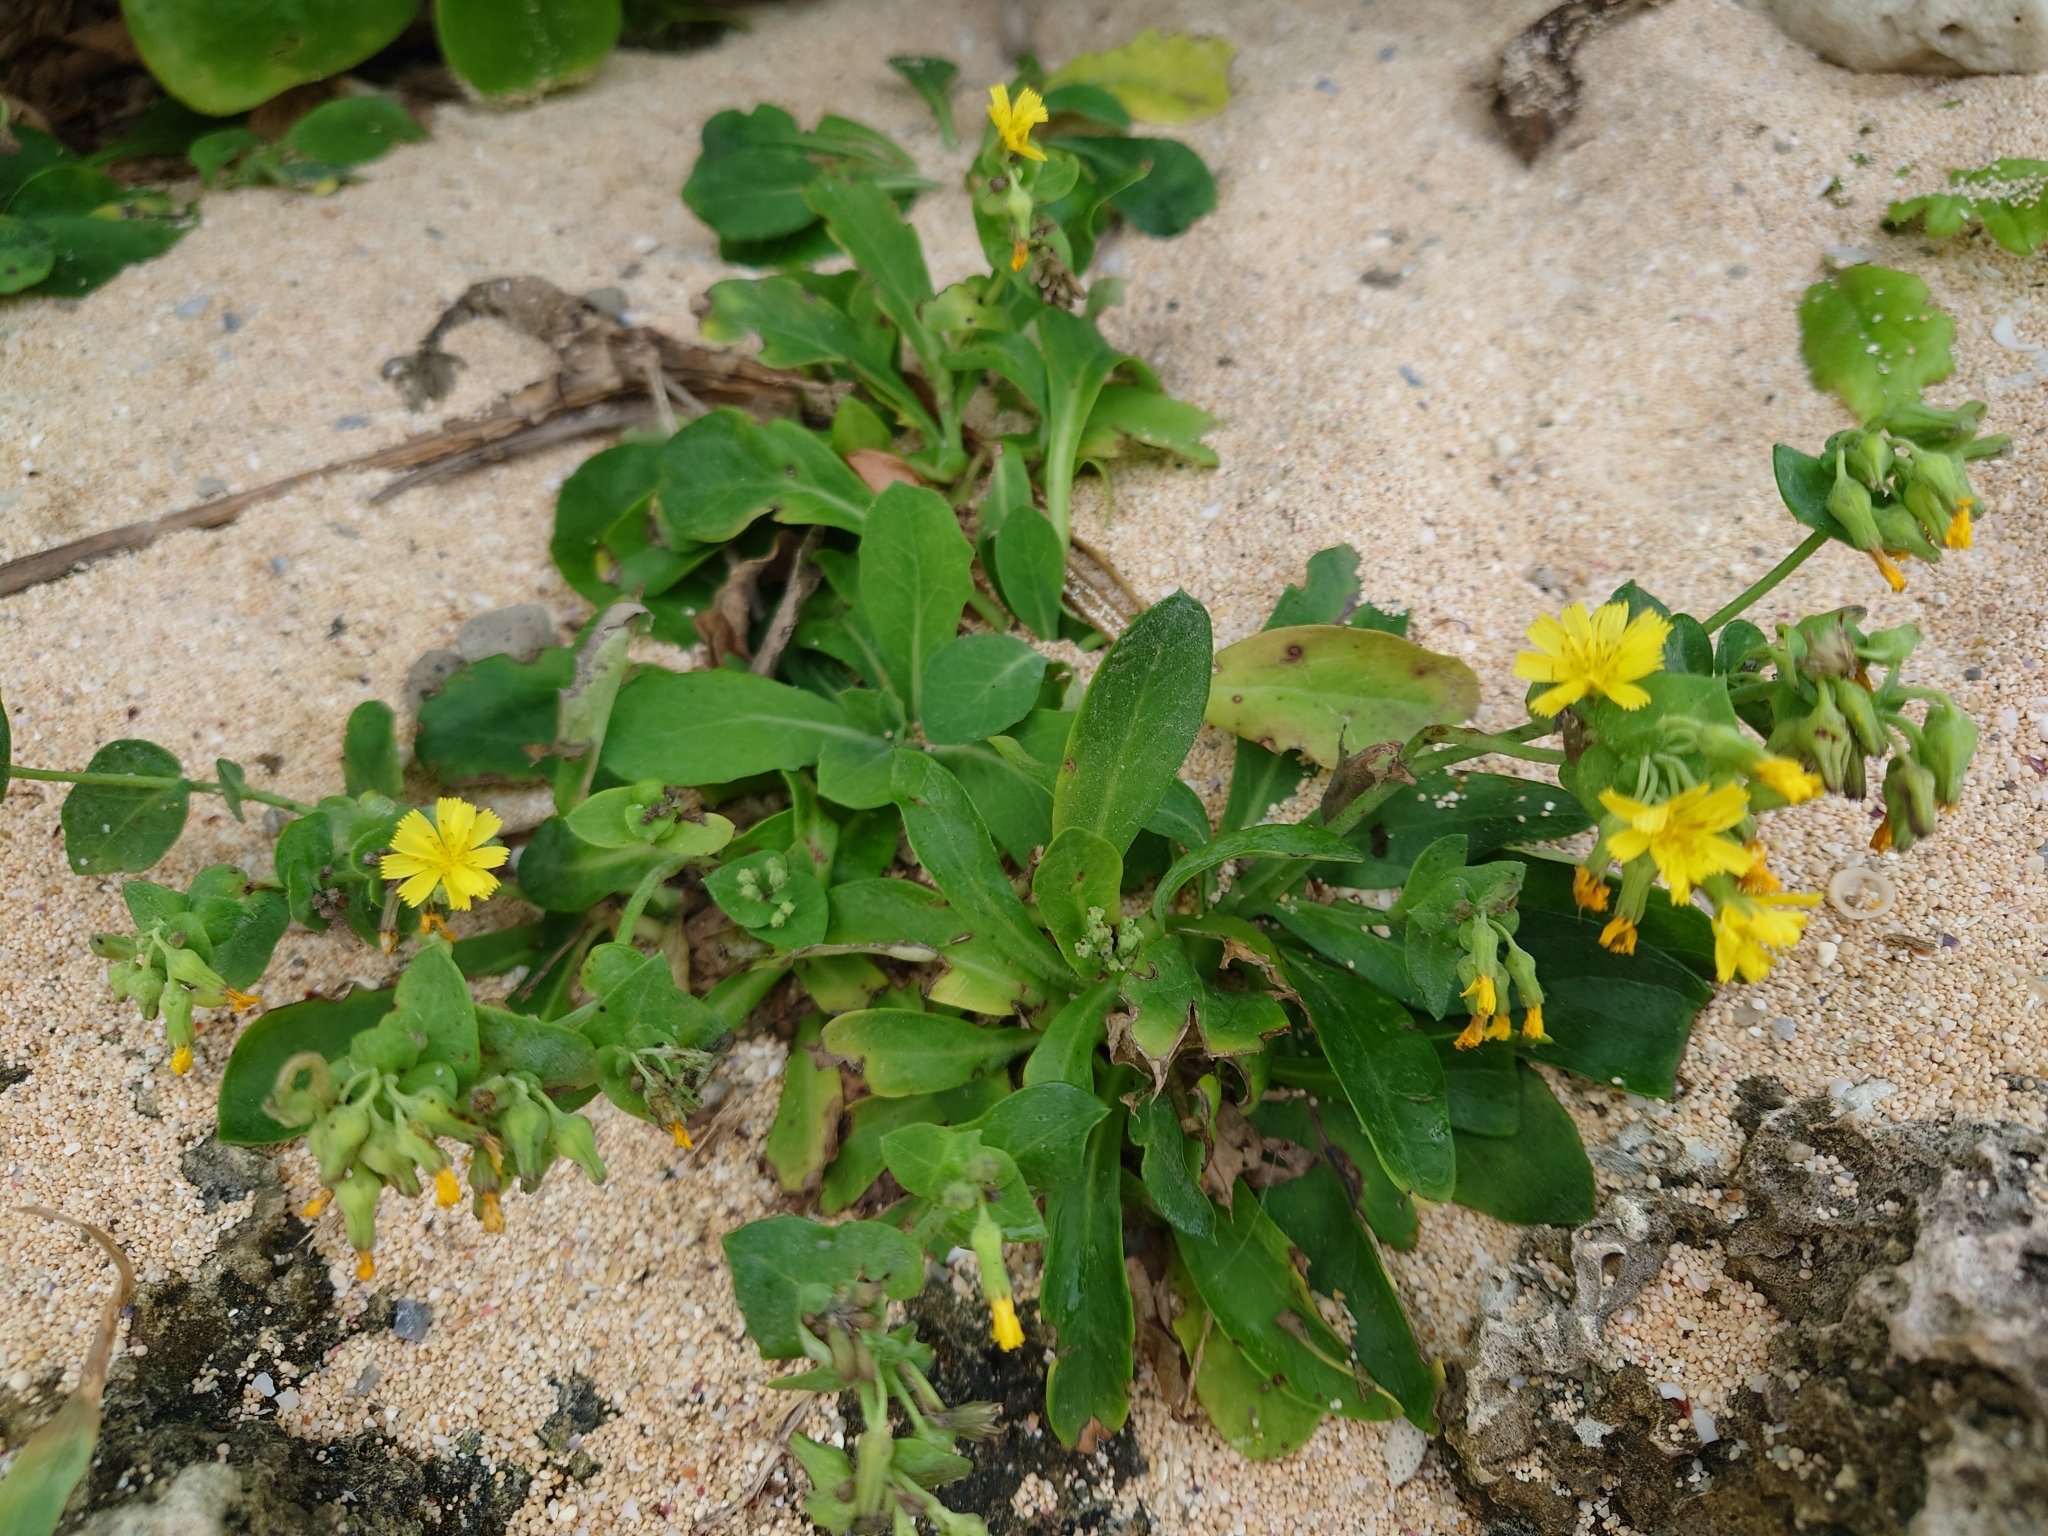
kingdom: Plantae
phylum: Tracheophyta
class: Magnoliopsida
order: Asterales
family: Asteraceae
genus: Crepidiastrum
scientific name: Crepidiastrum lanceolatum
